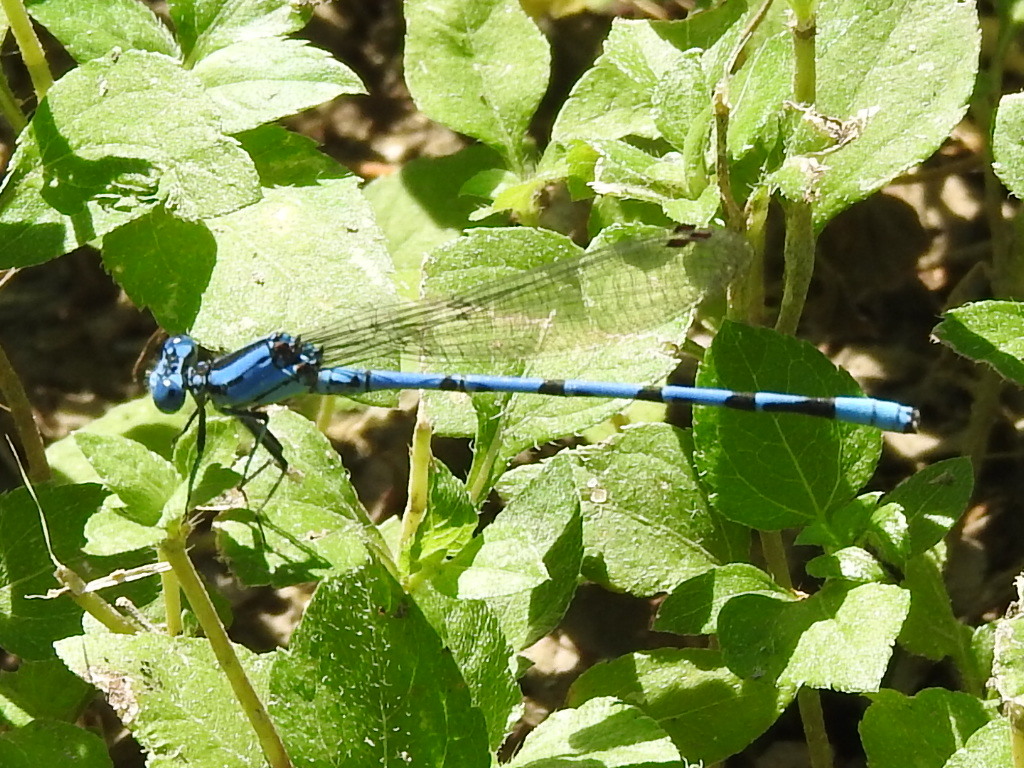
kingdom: Animalia
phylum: Arthropoda
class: Insecta
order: Odonata
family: Coenagrionidae
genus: Argia
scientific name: Argia funebris
